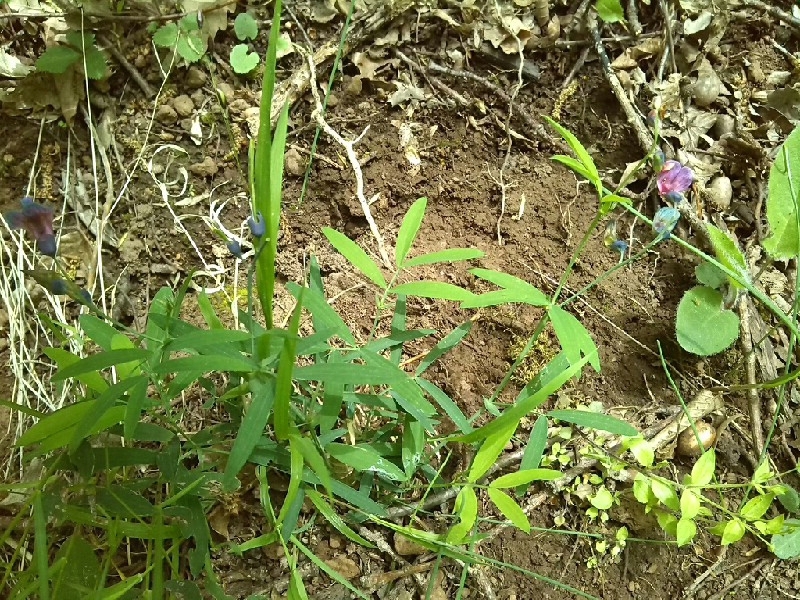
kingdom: Plantae
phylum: Tracheophyta
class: Magnoliopsida
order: Fabales
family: Fabaceae
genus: Lathyrus
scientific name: Lathyrus linifolius
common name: Bitter-vetch
